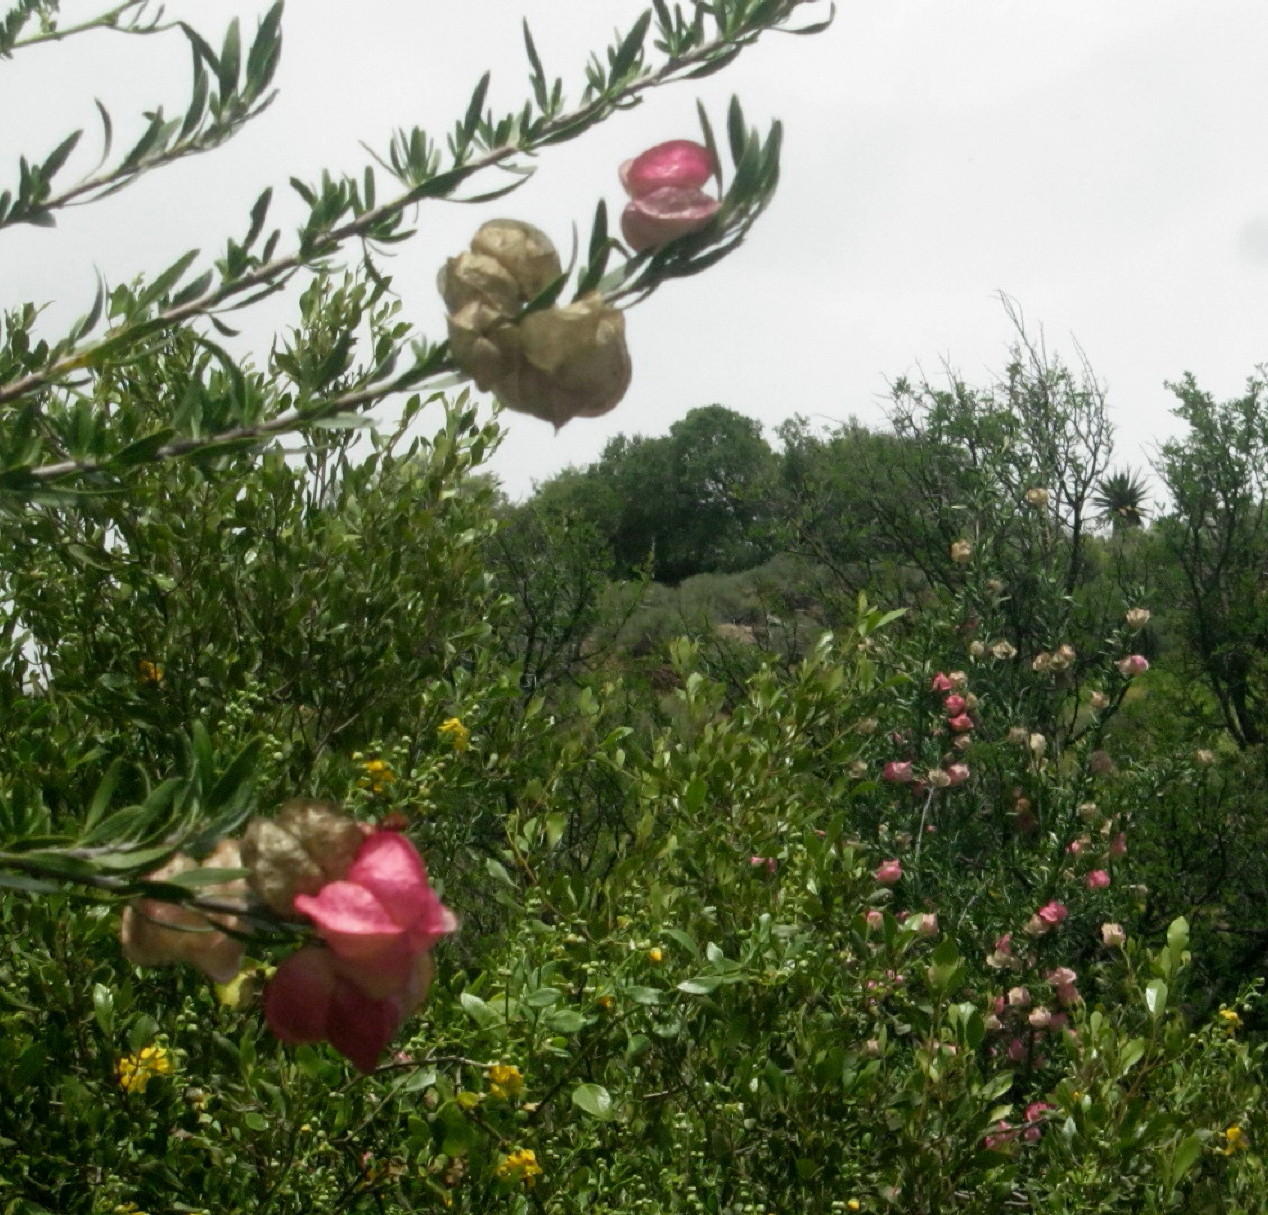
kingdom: Plantae
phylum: Tracheophyta
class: Magnoliopsida
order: Sapindales
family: Meliaceae
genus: Nymania
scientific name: Nymania capensis
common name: Chinese lantern tree
